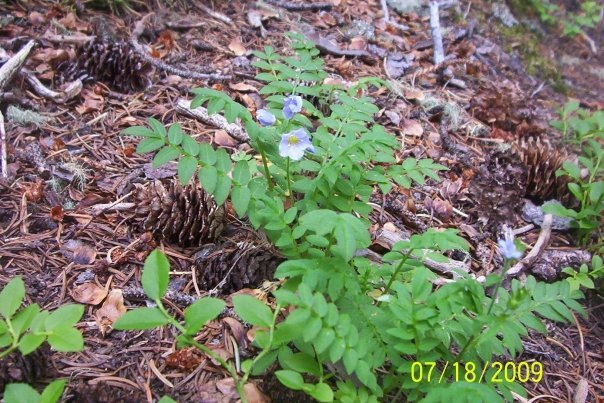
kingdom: Plantae
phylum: Tracheophyta
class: Magnoliopsida
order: Ericales
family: Polemoniaceae
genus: Polemonium
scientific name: Polemonium pulcherrimum
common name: Short jacob's-ladder
